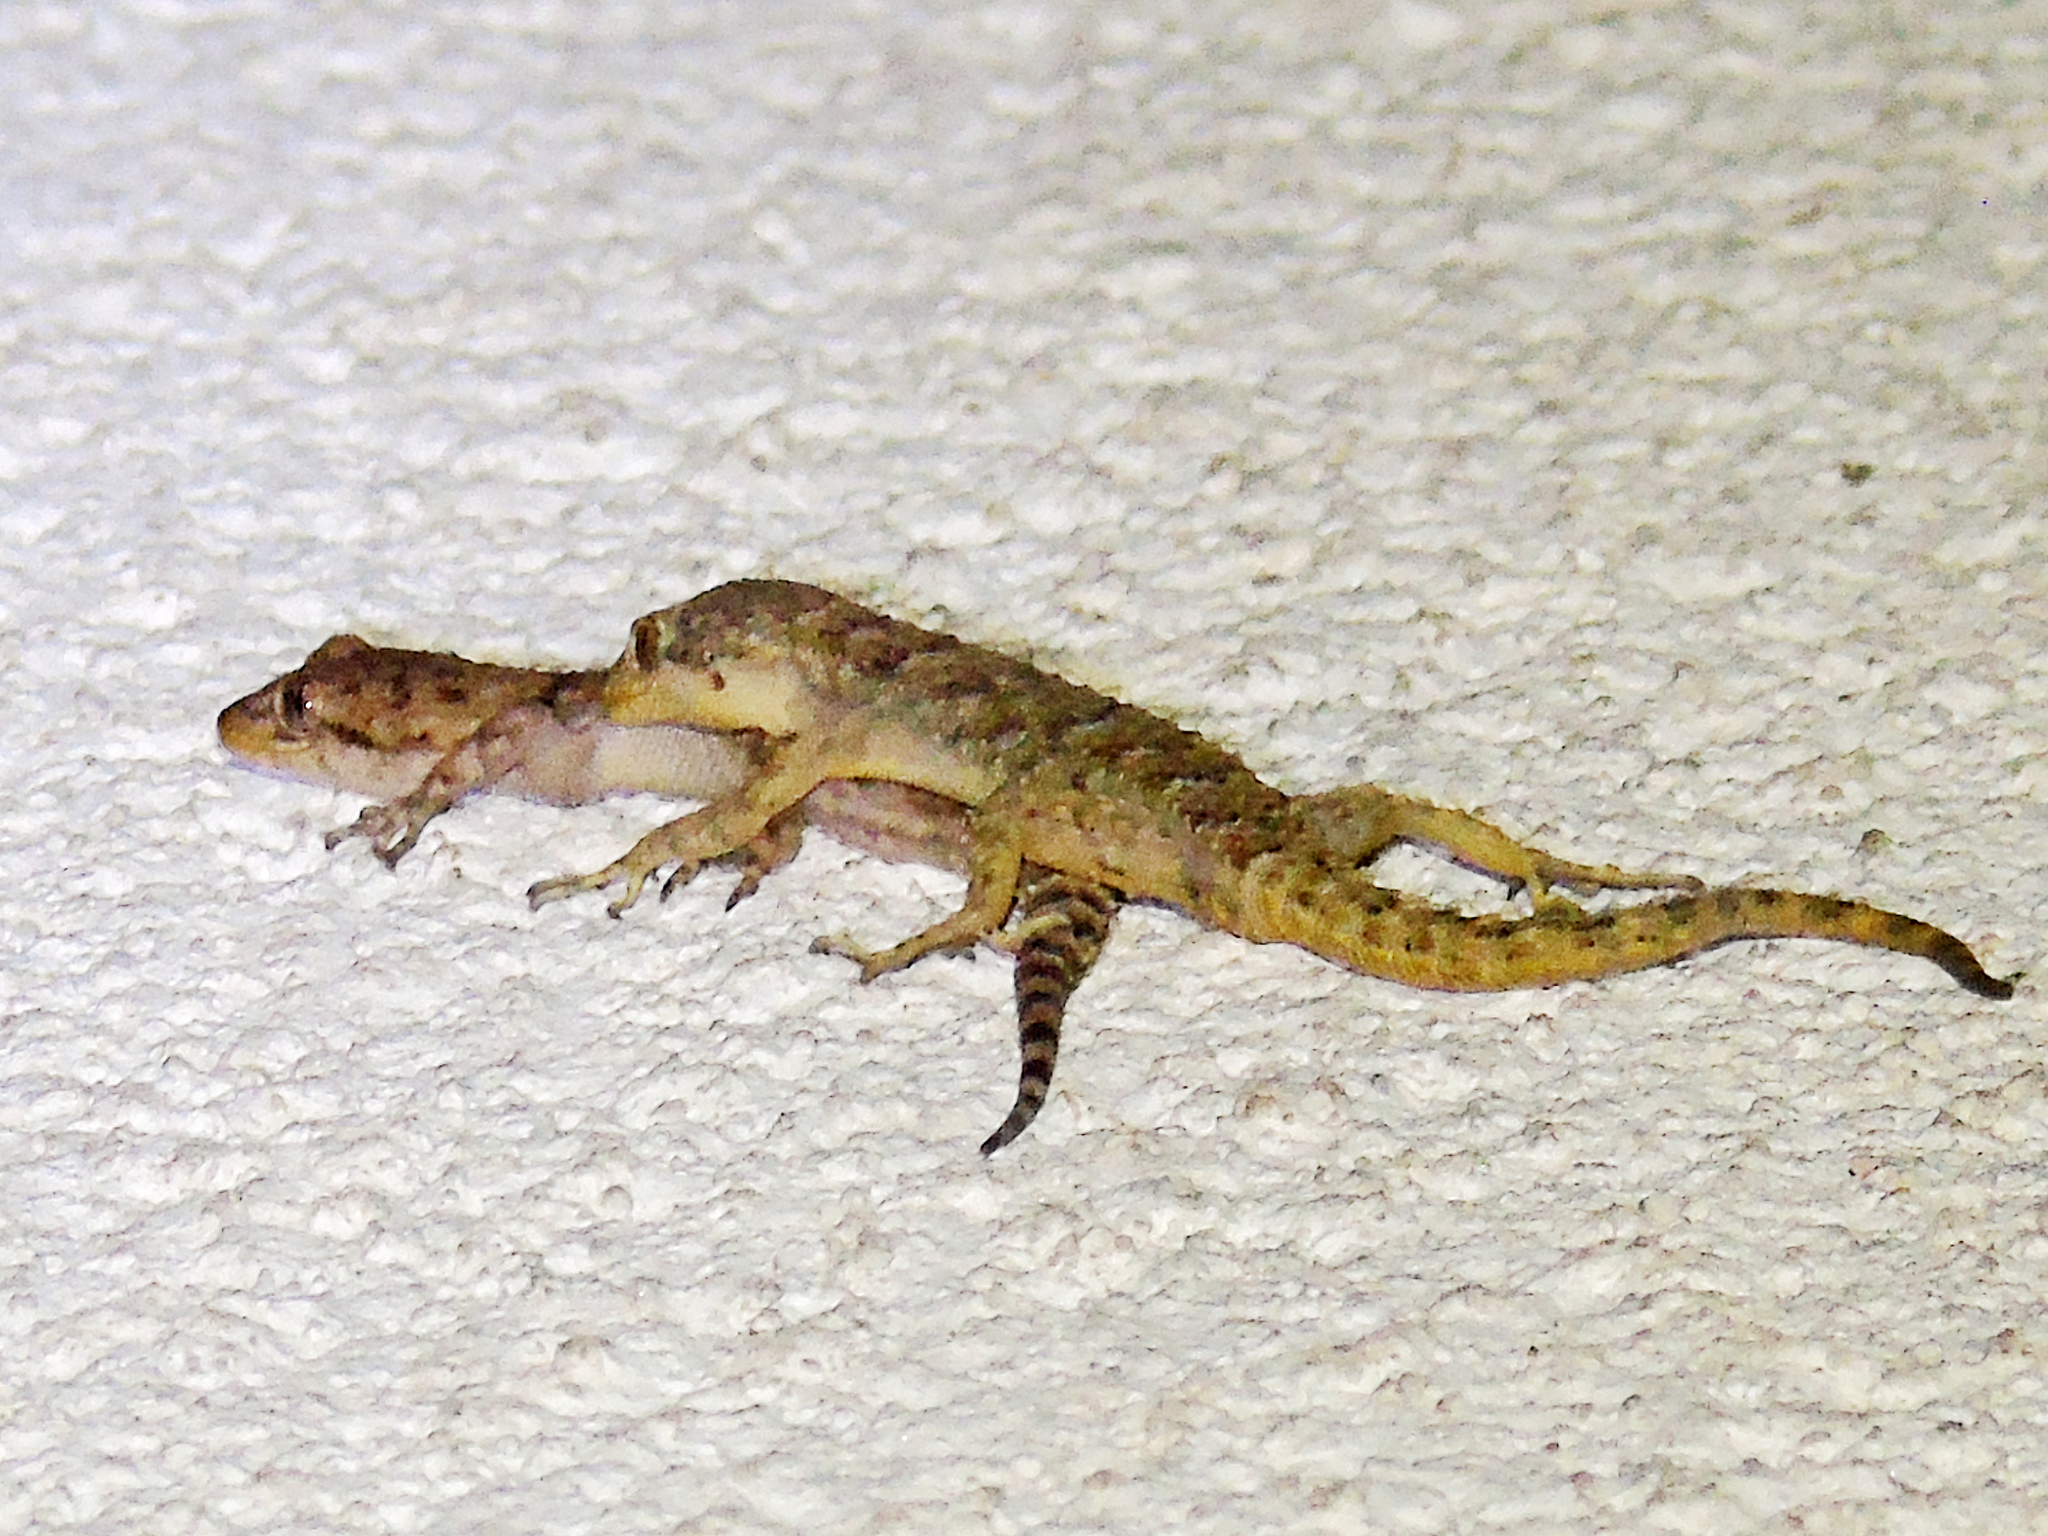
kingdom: Animalia
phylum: Chordata
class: Squamata
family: Gekkonidae
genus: Mediodactylus
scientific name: Mediodactylus kotschyi
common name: Kotschy's gecko
